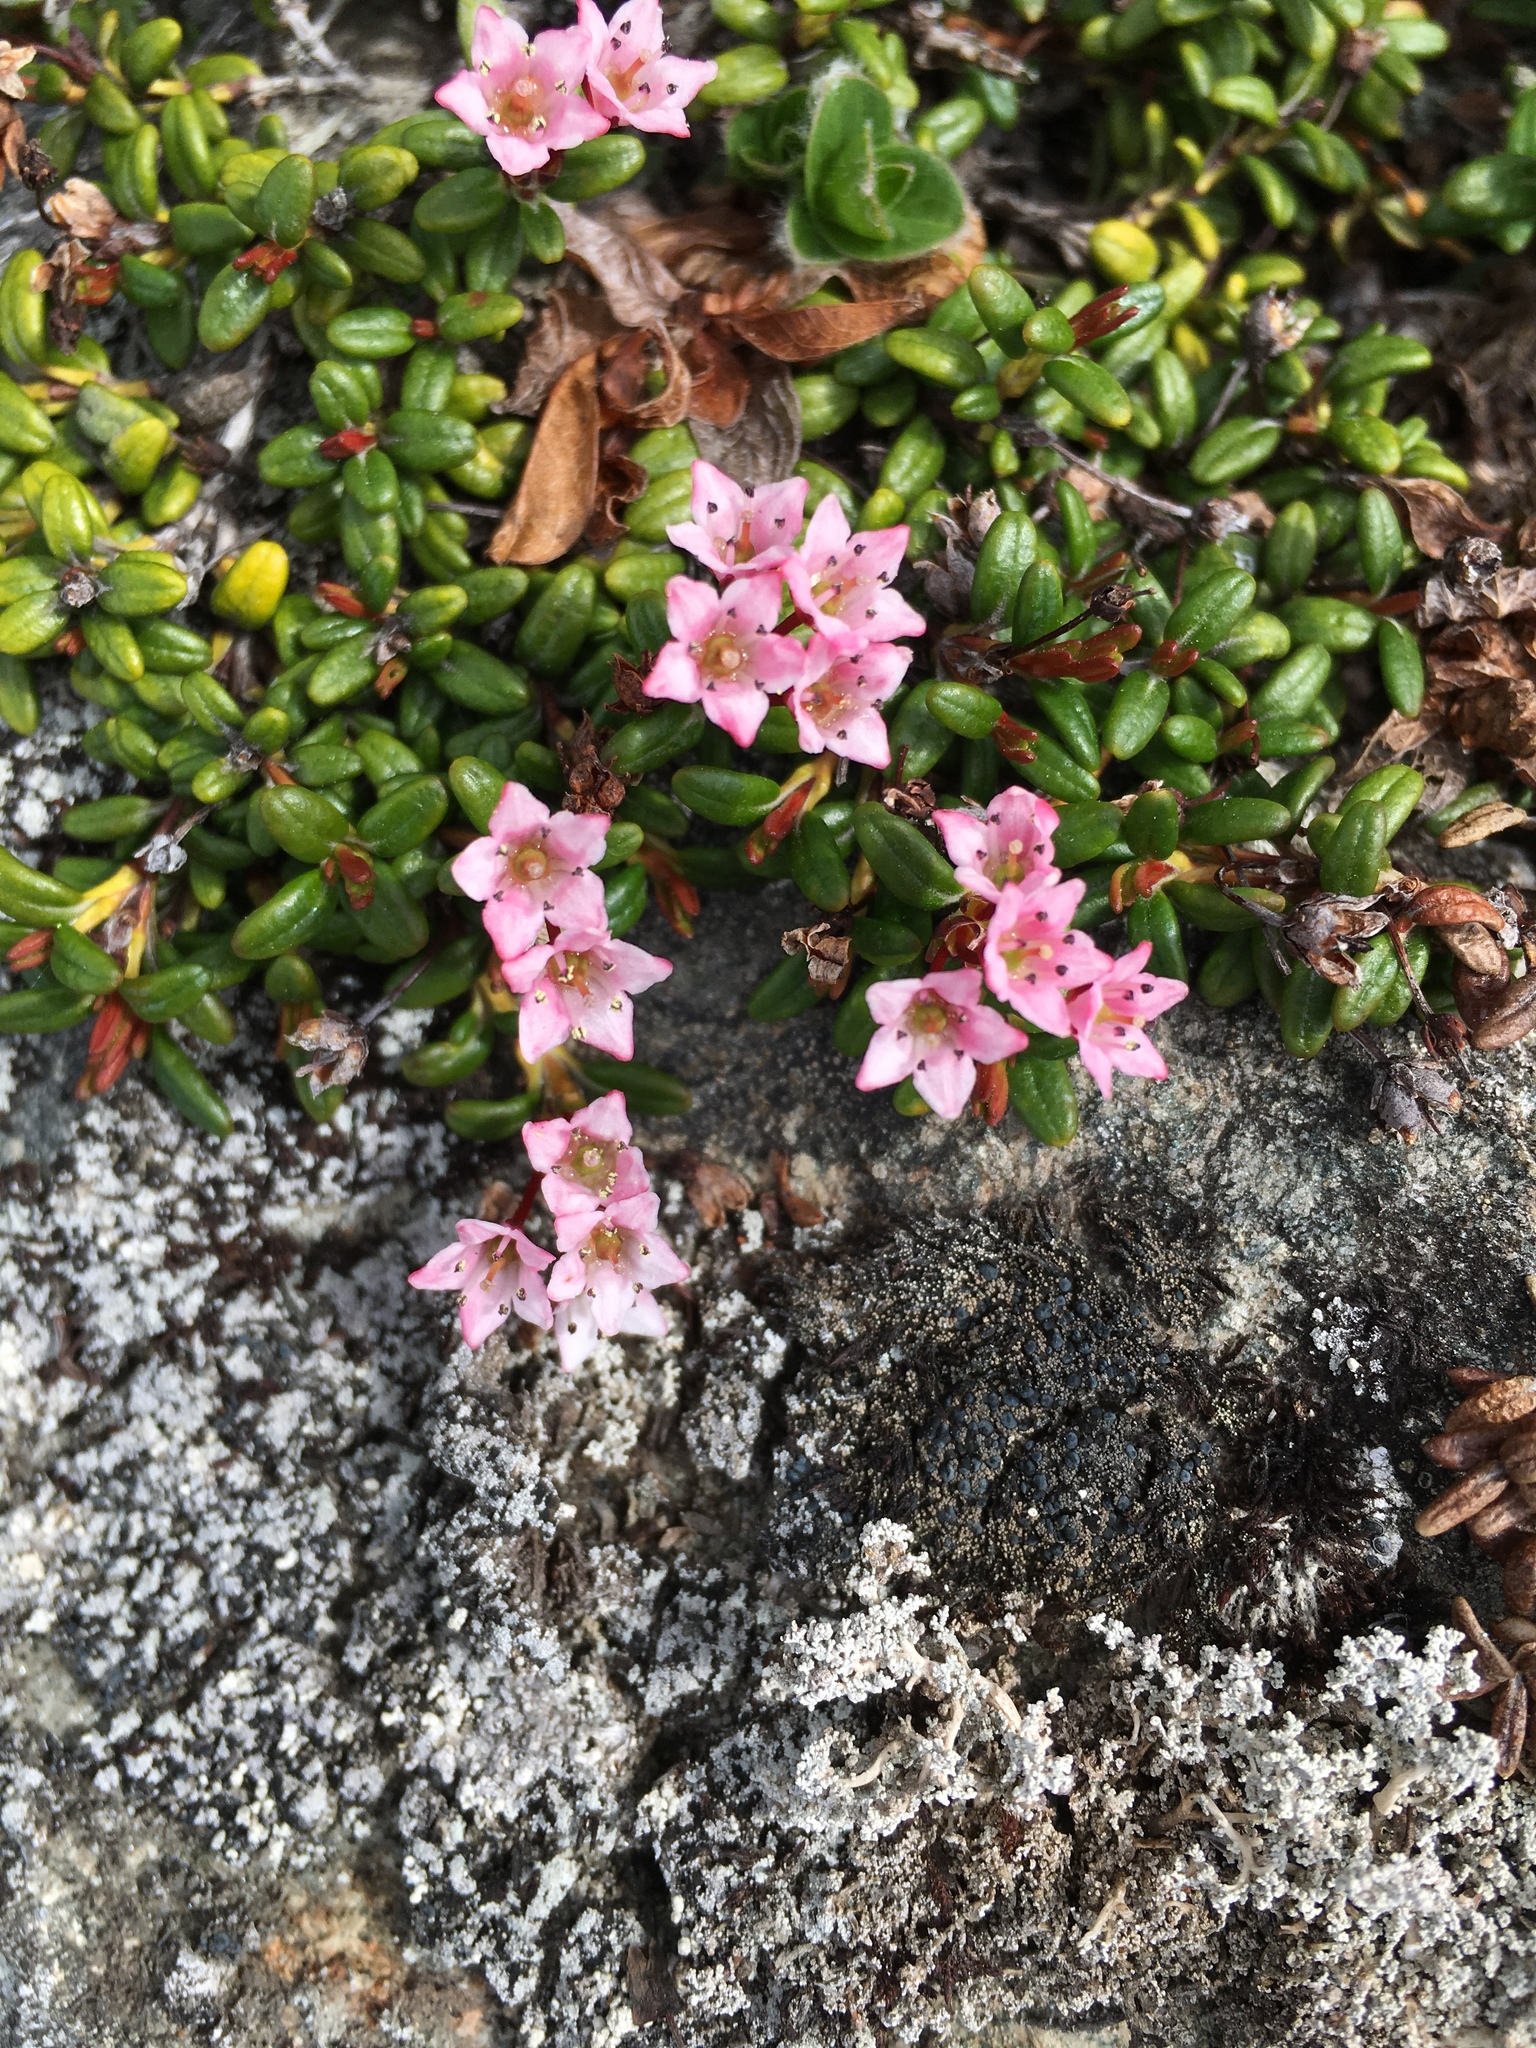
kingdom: Plantae
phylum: Tracheophyta
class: Magnoliopsida
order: Ericales
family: Ericaceae
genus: Kalmia
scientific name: Kalmia procumbens
